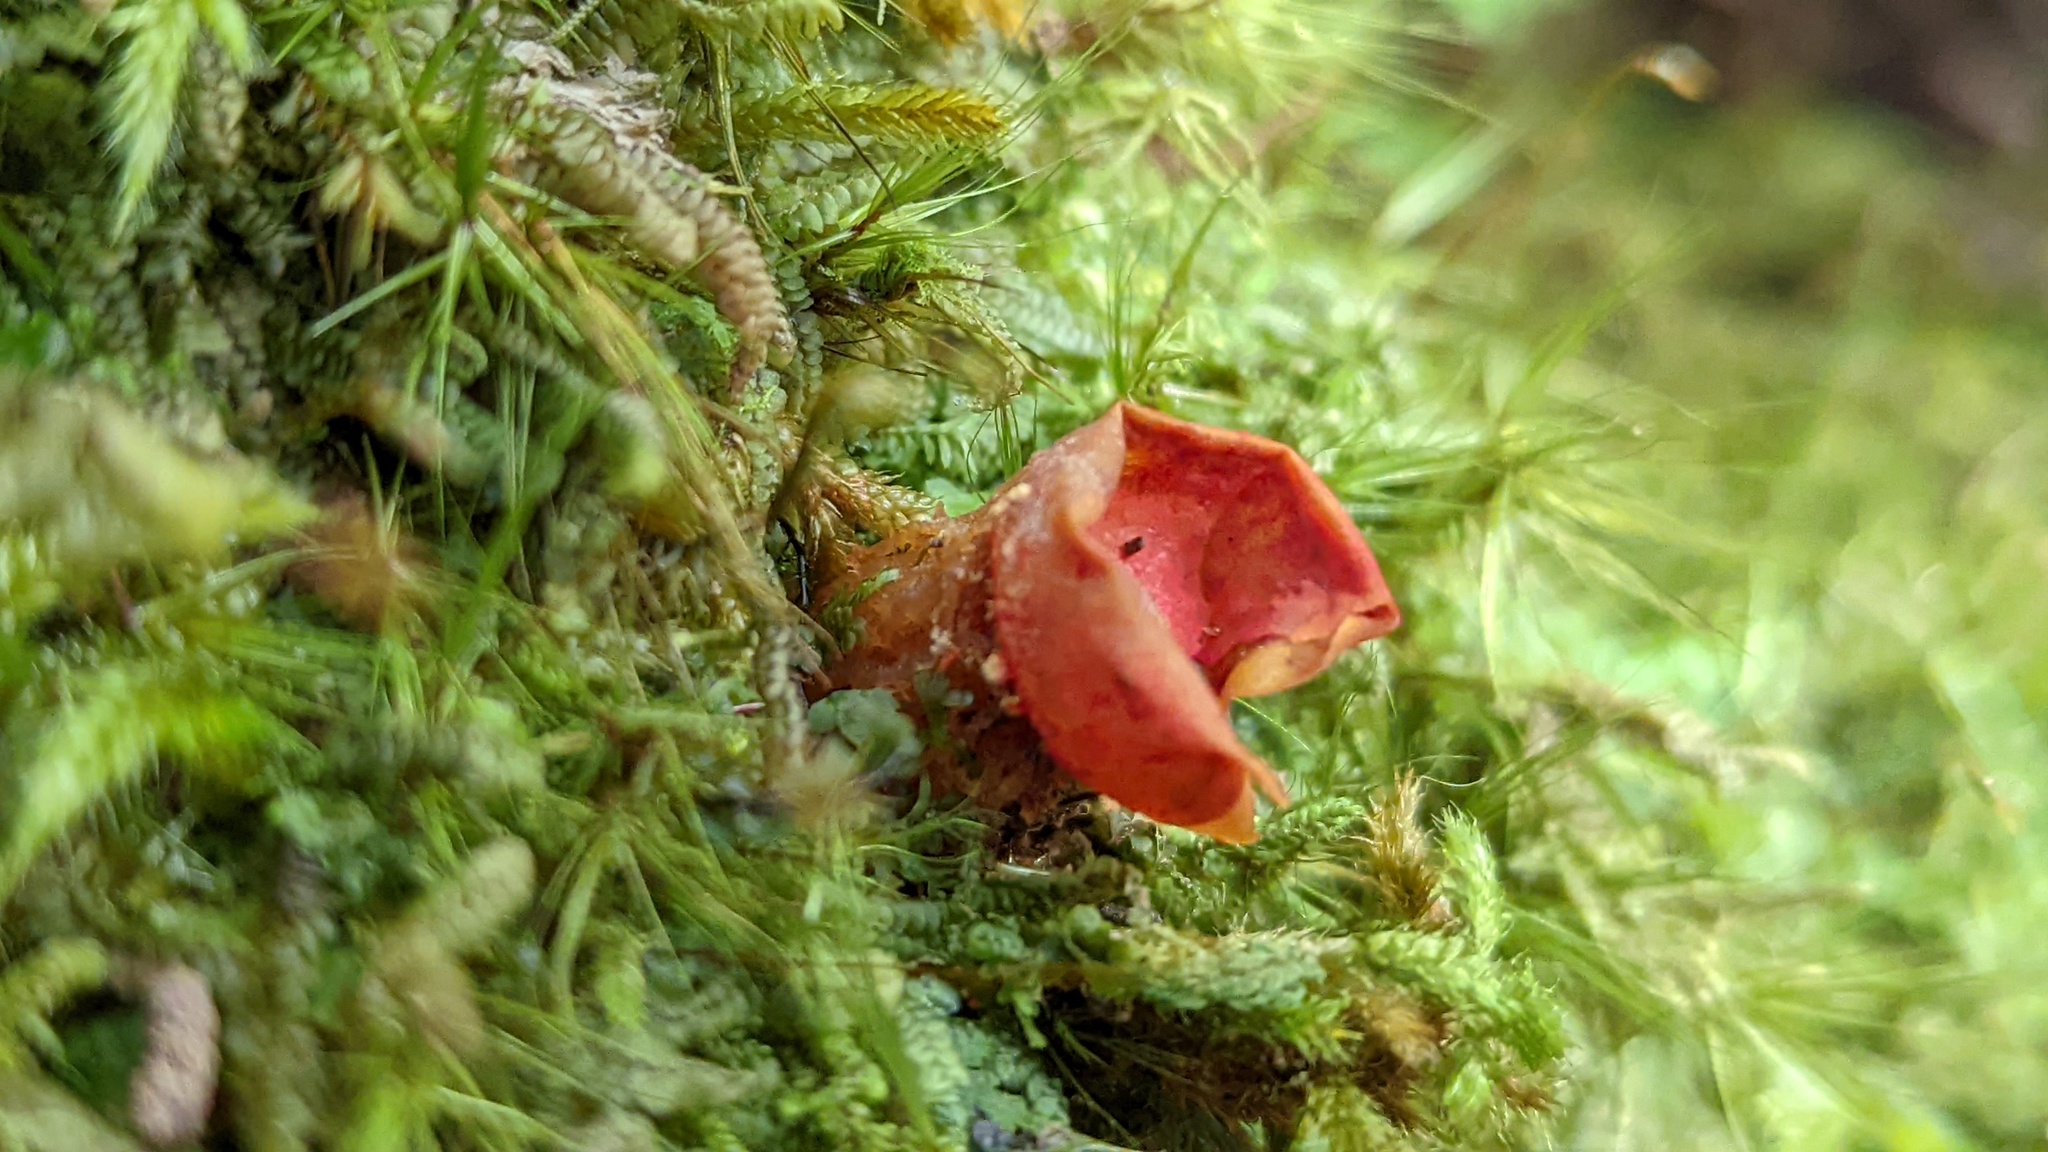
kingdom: Fungi
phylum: Basidiomycota
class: Agaricomycetes
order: Boletales
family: Calostomataceae
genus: Calostoma
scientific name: Calostoma cinnabarinum
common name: Stalked puffball-in-aspic
